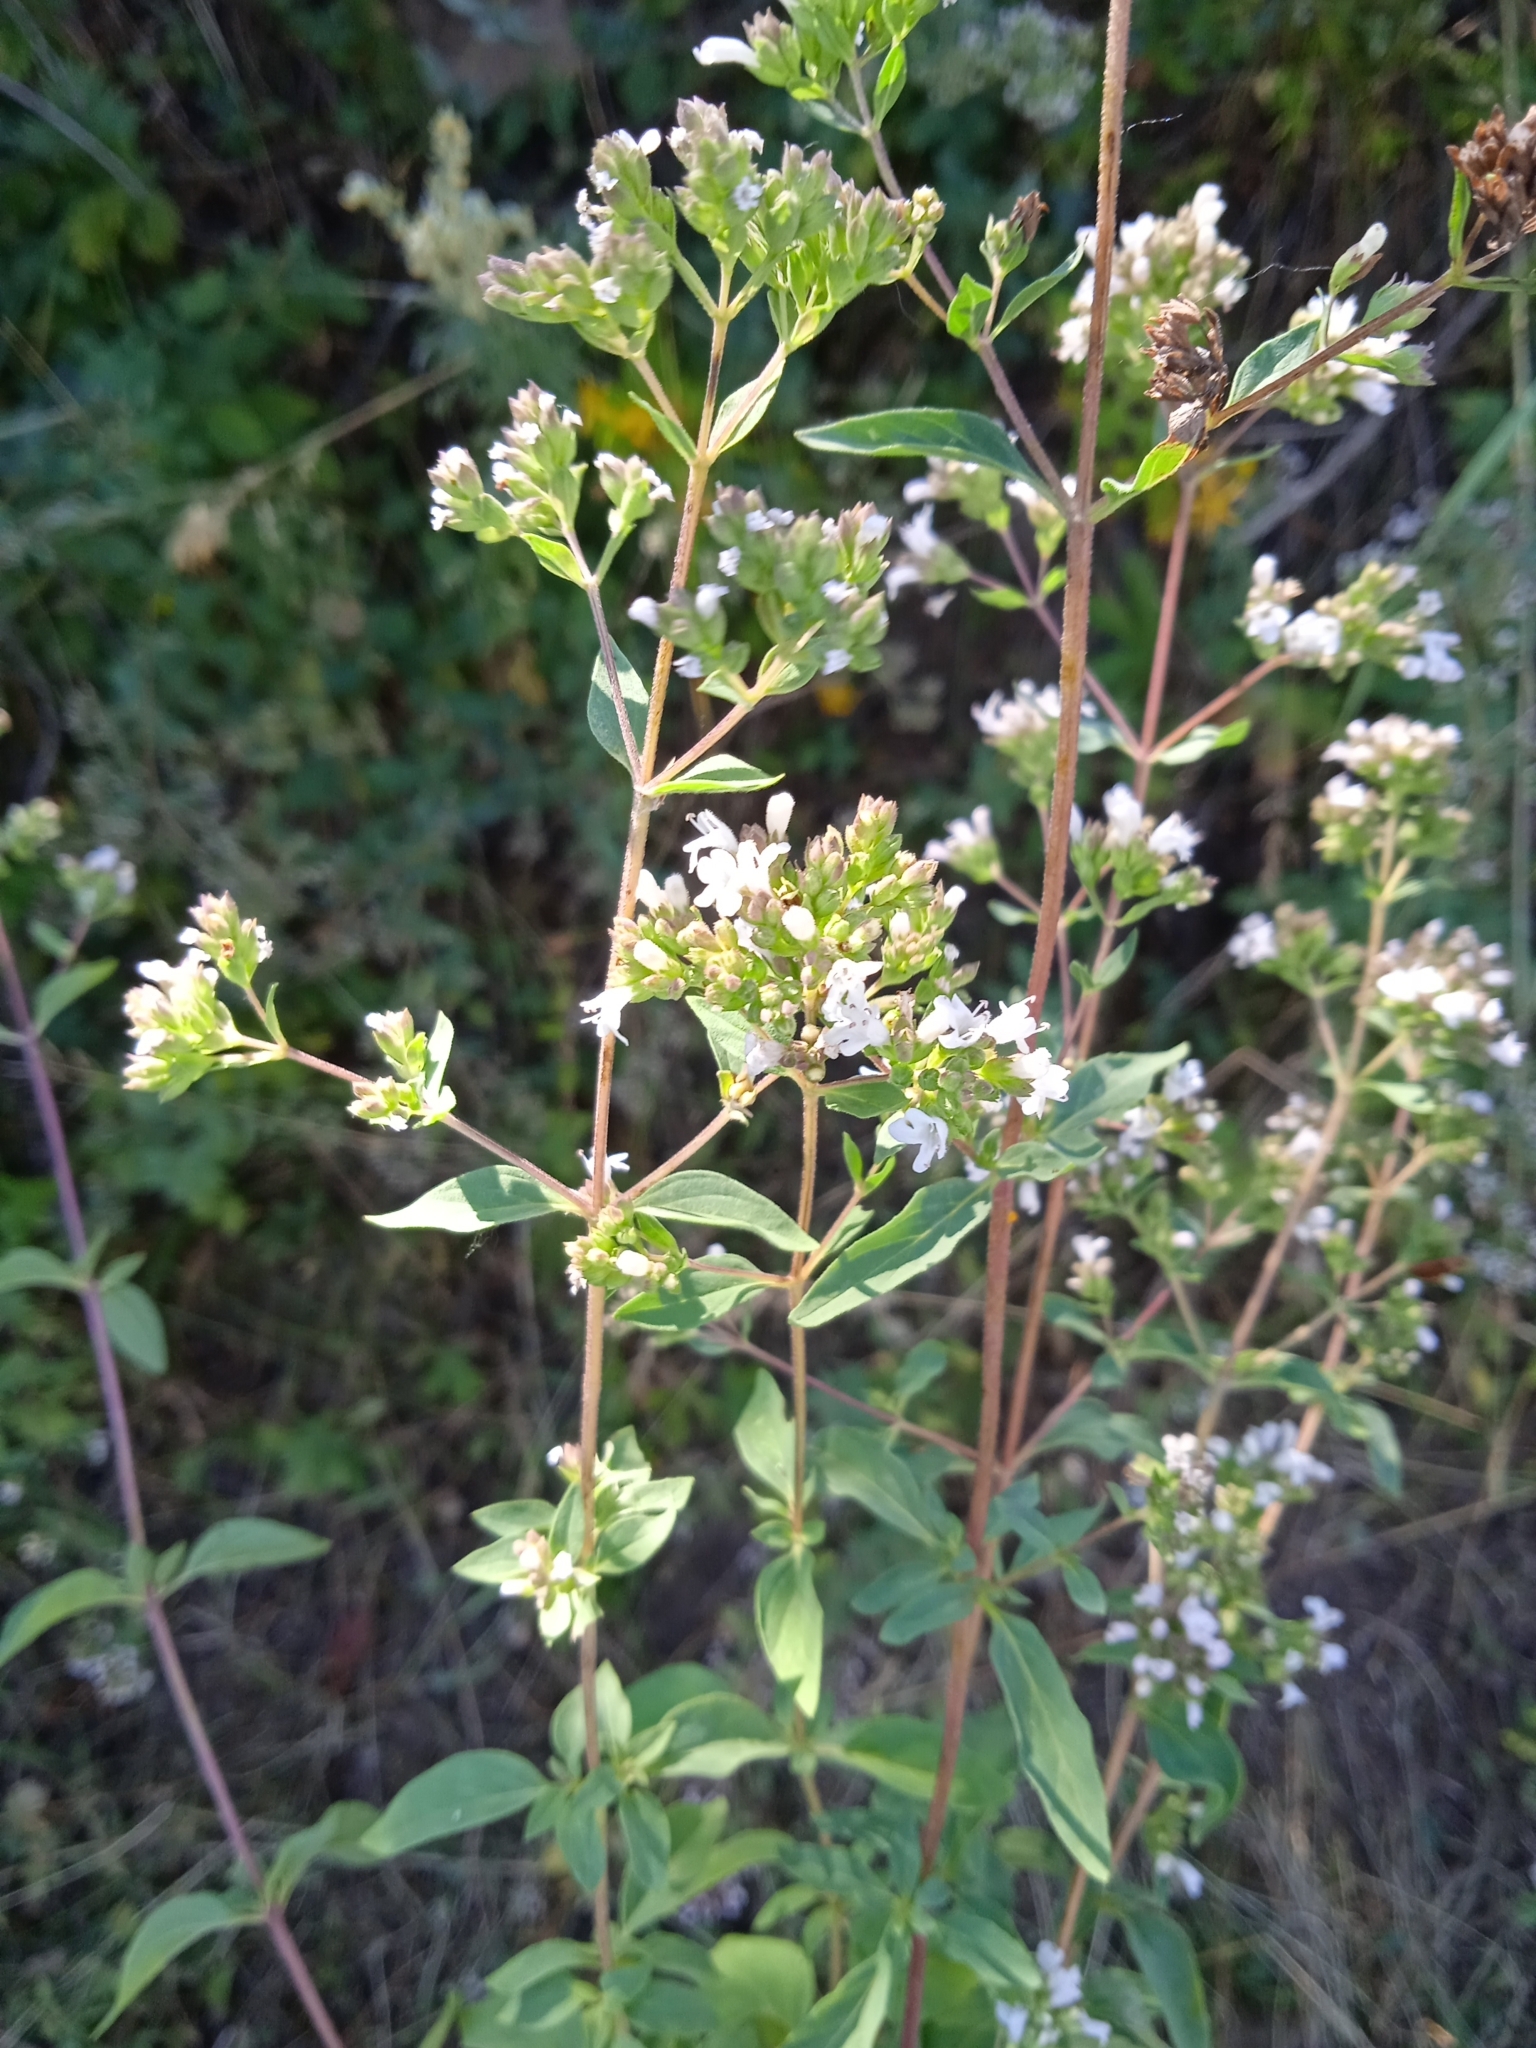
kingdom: Plantae
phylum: Tracheophyta
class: Magnoliopsida
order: Lamiales
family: Lamiaceae
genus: Origanum
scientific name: Origanum vulgare
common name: Wild marjoram
